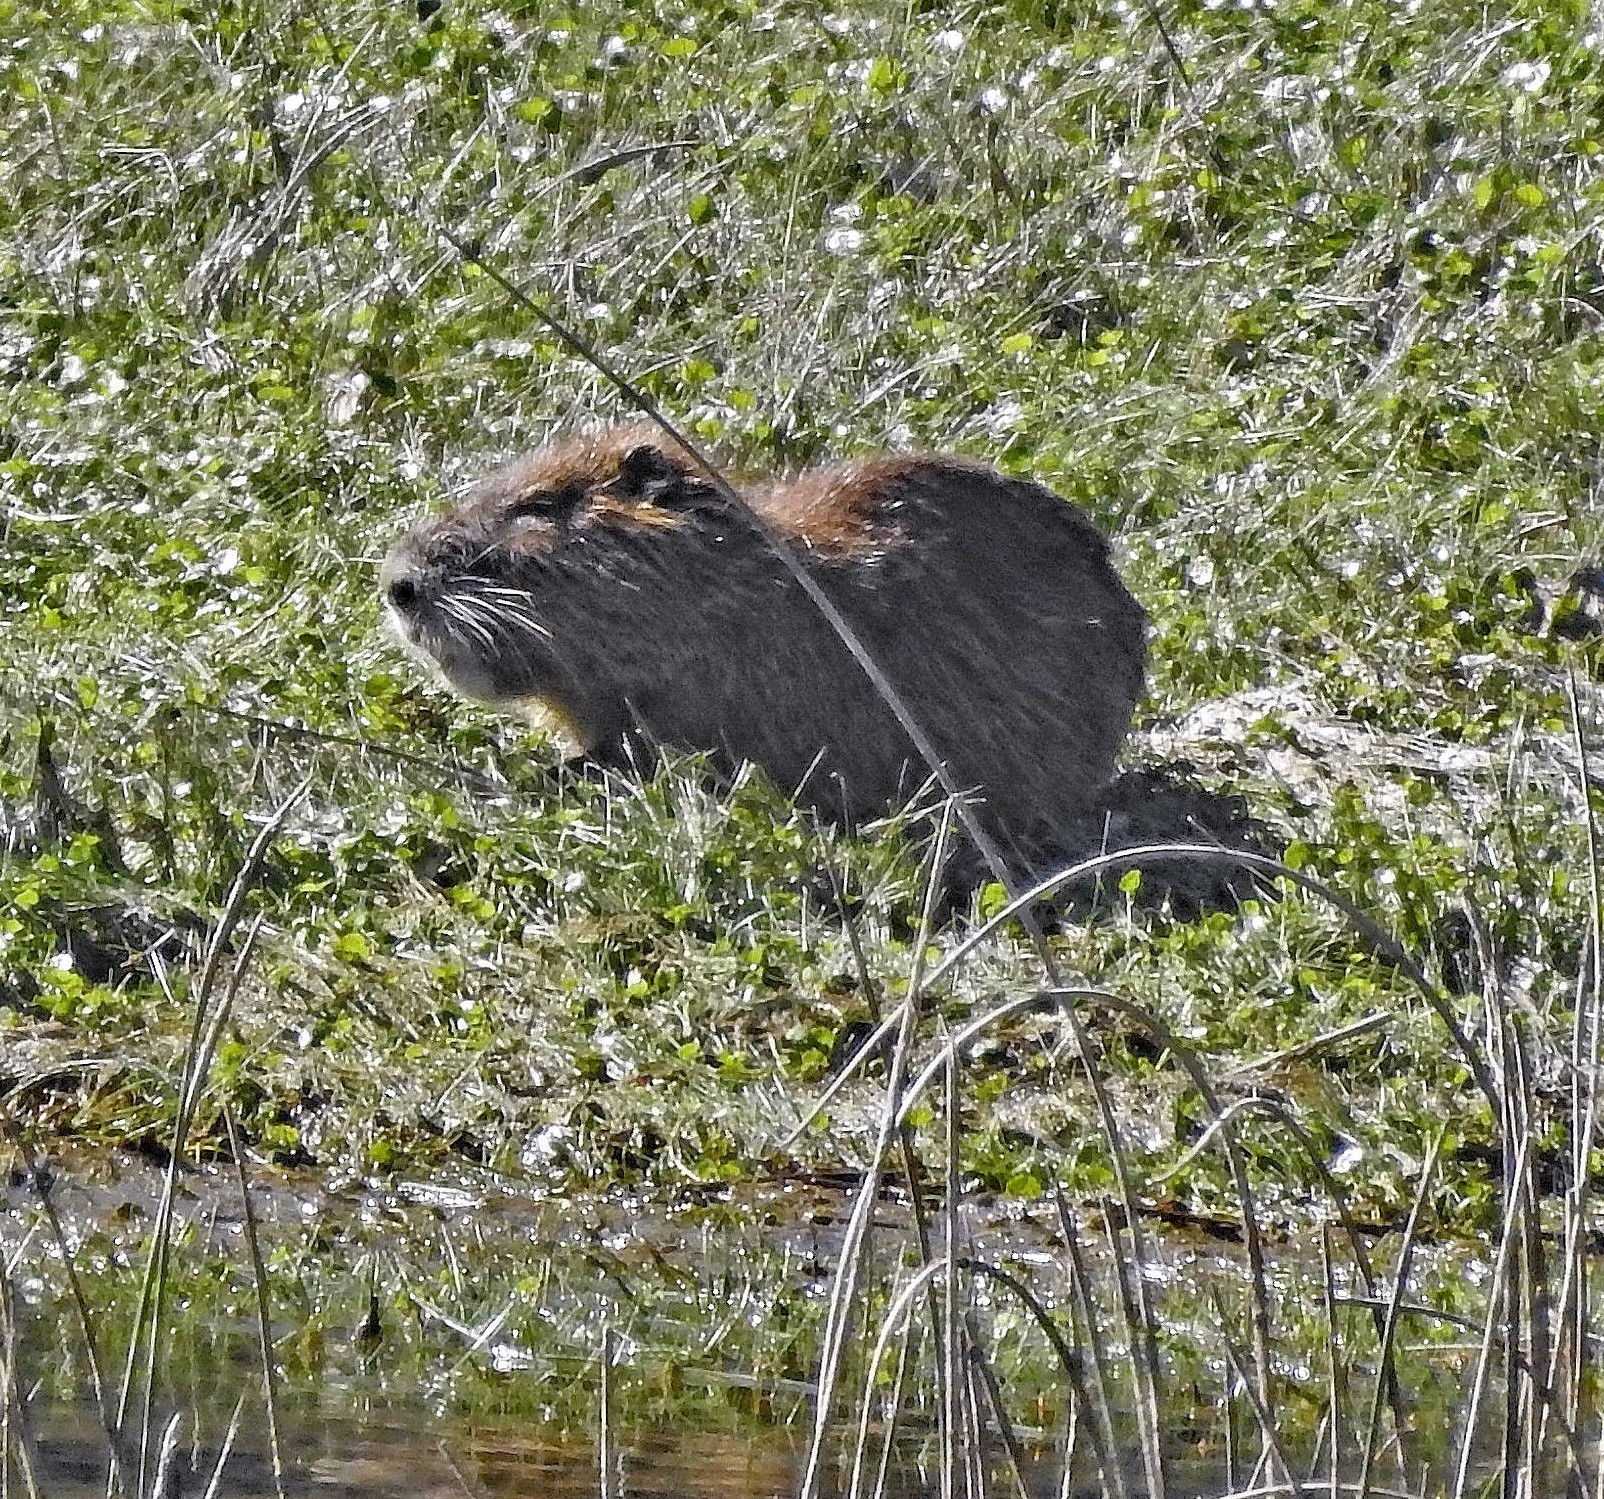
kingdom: Animalia
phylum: Chordata
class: Mammalia
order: Rodentia
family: Myocastoridae
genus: Myocastor
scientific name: Myocastor coypus
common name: Coypu
